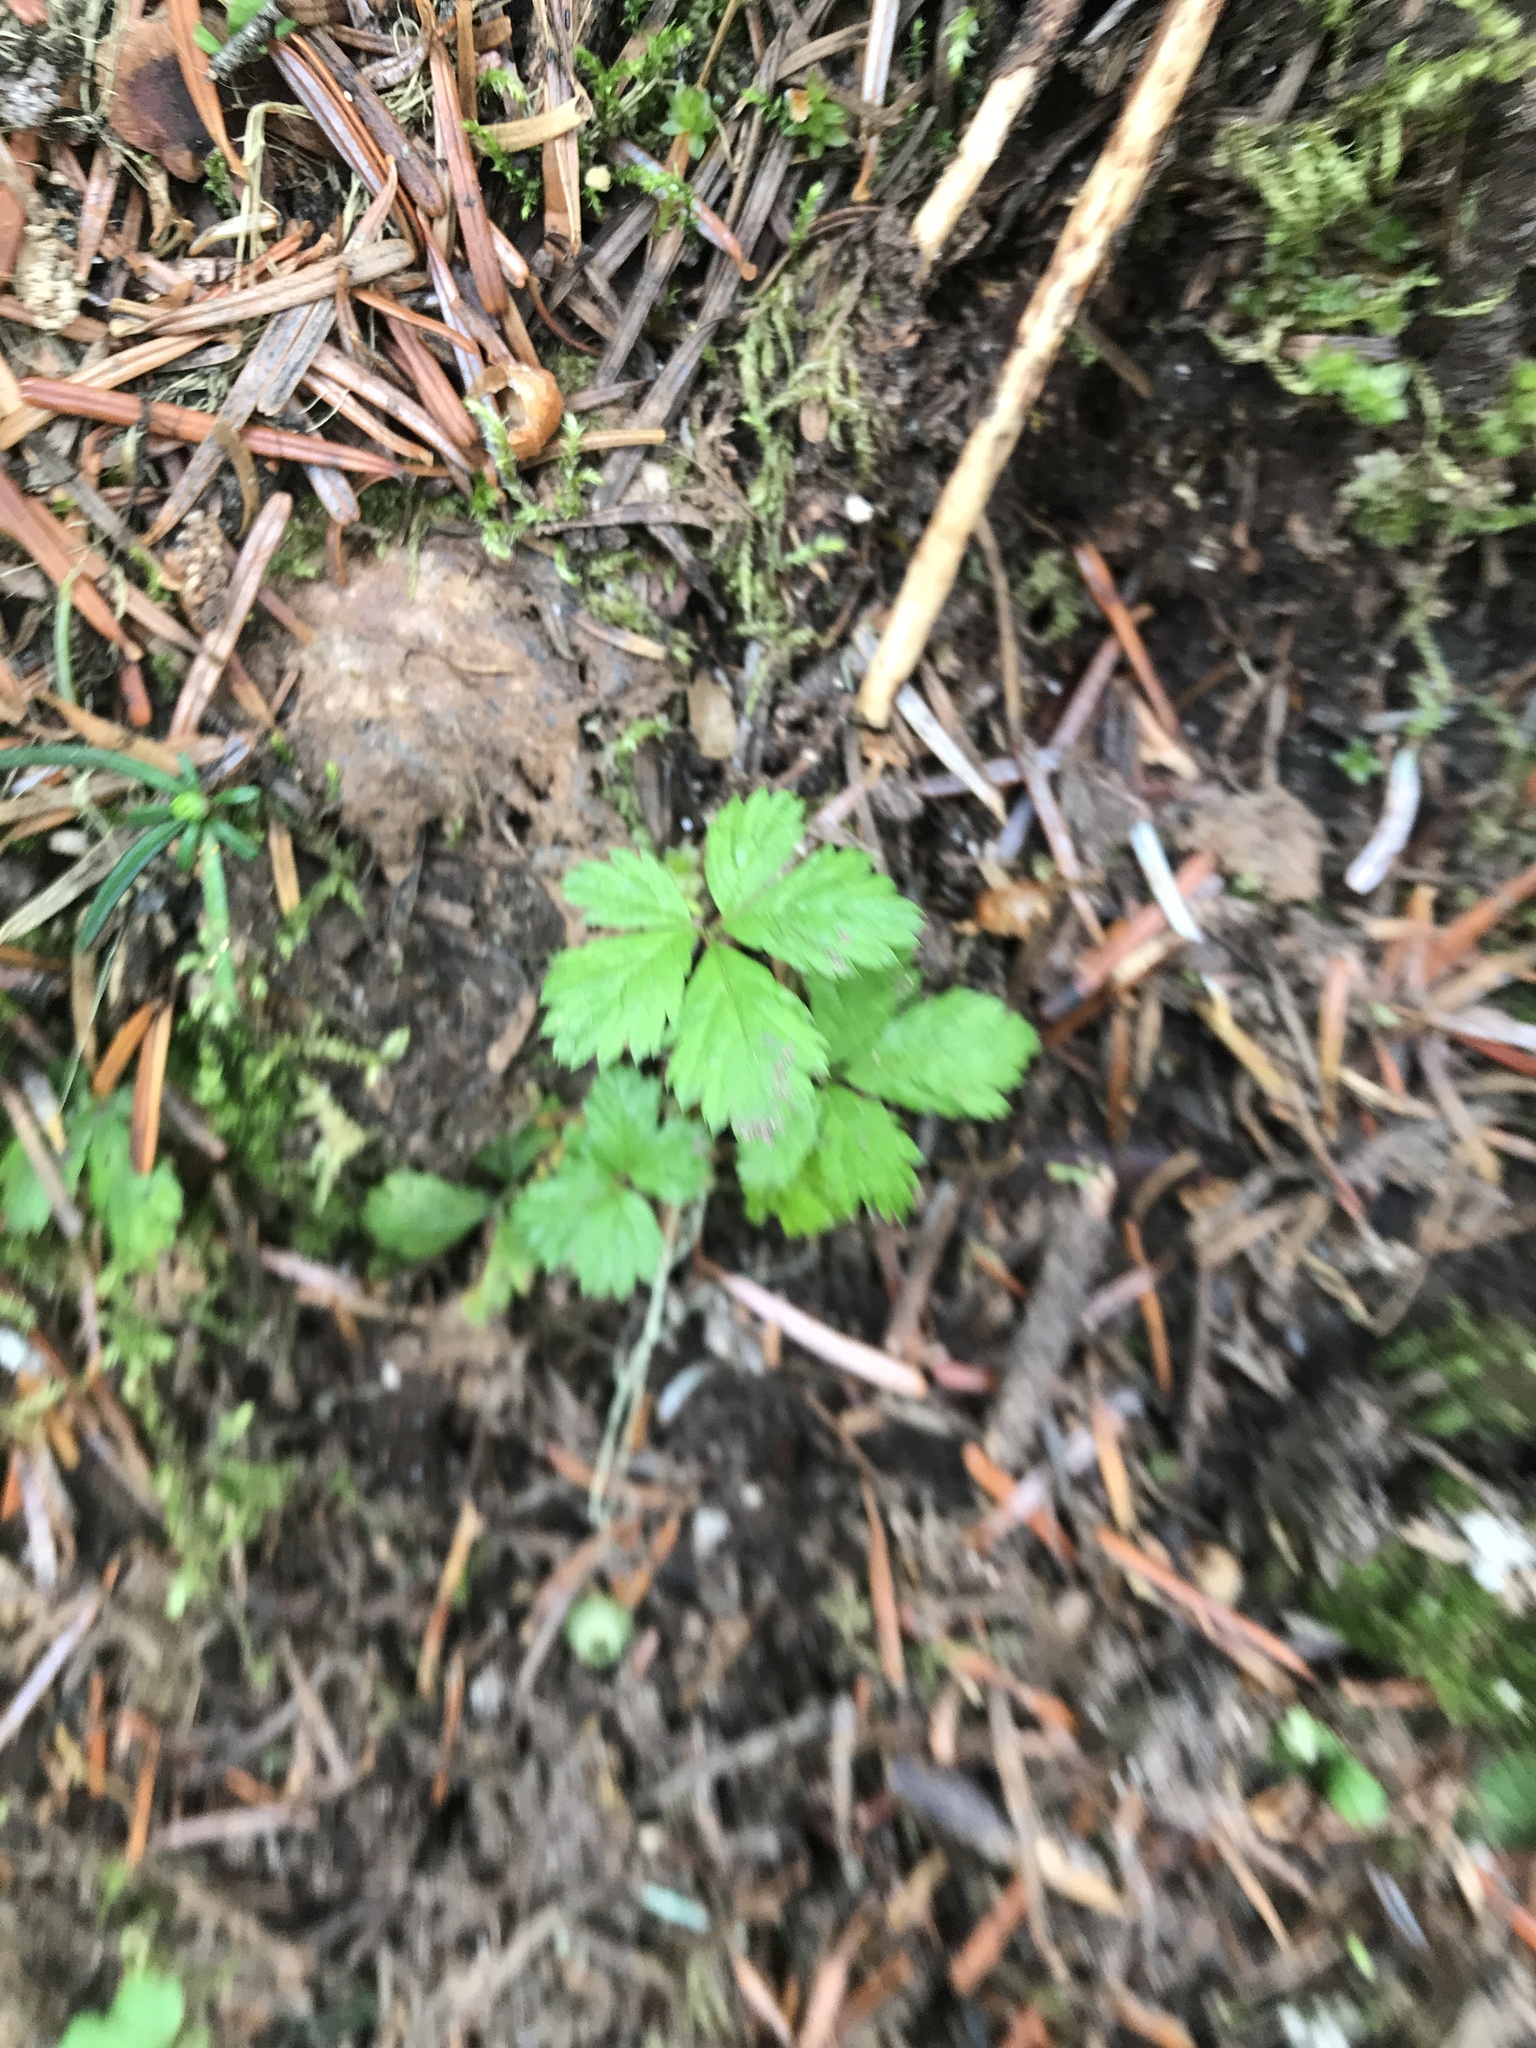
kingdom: Plantae
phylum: Tracheophyta
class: Magnoliopsida
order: Rosales
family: Rosaceae
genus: Rubus
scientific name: Rubus pedatus
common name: Creeping raspberry
